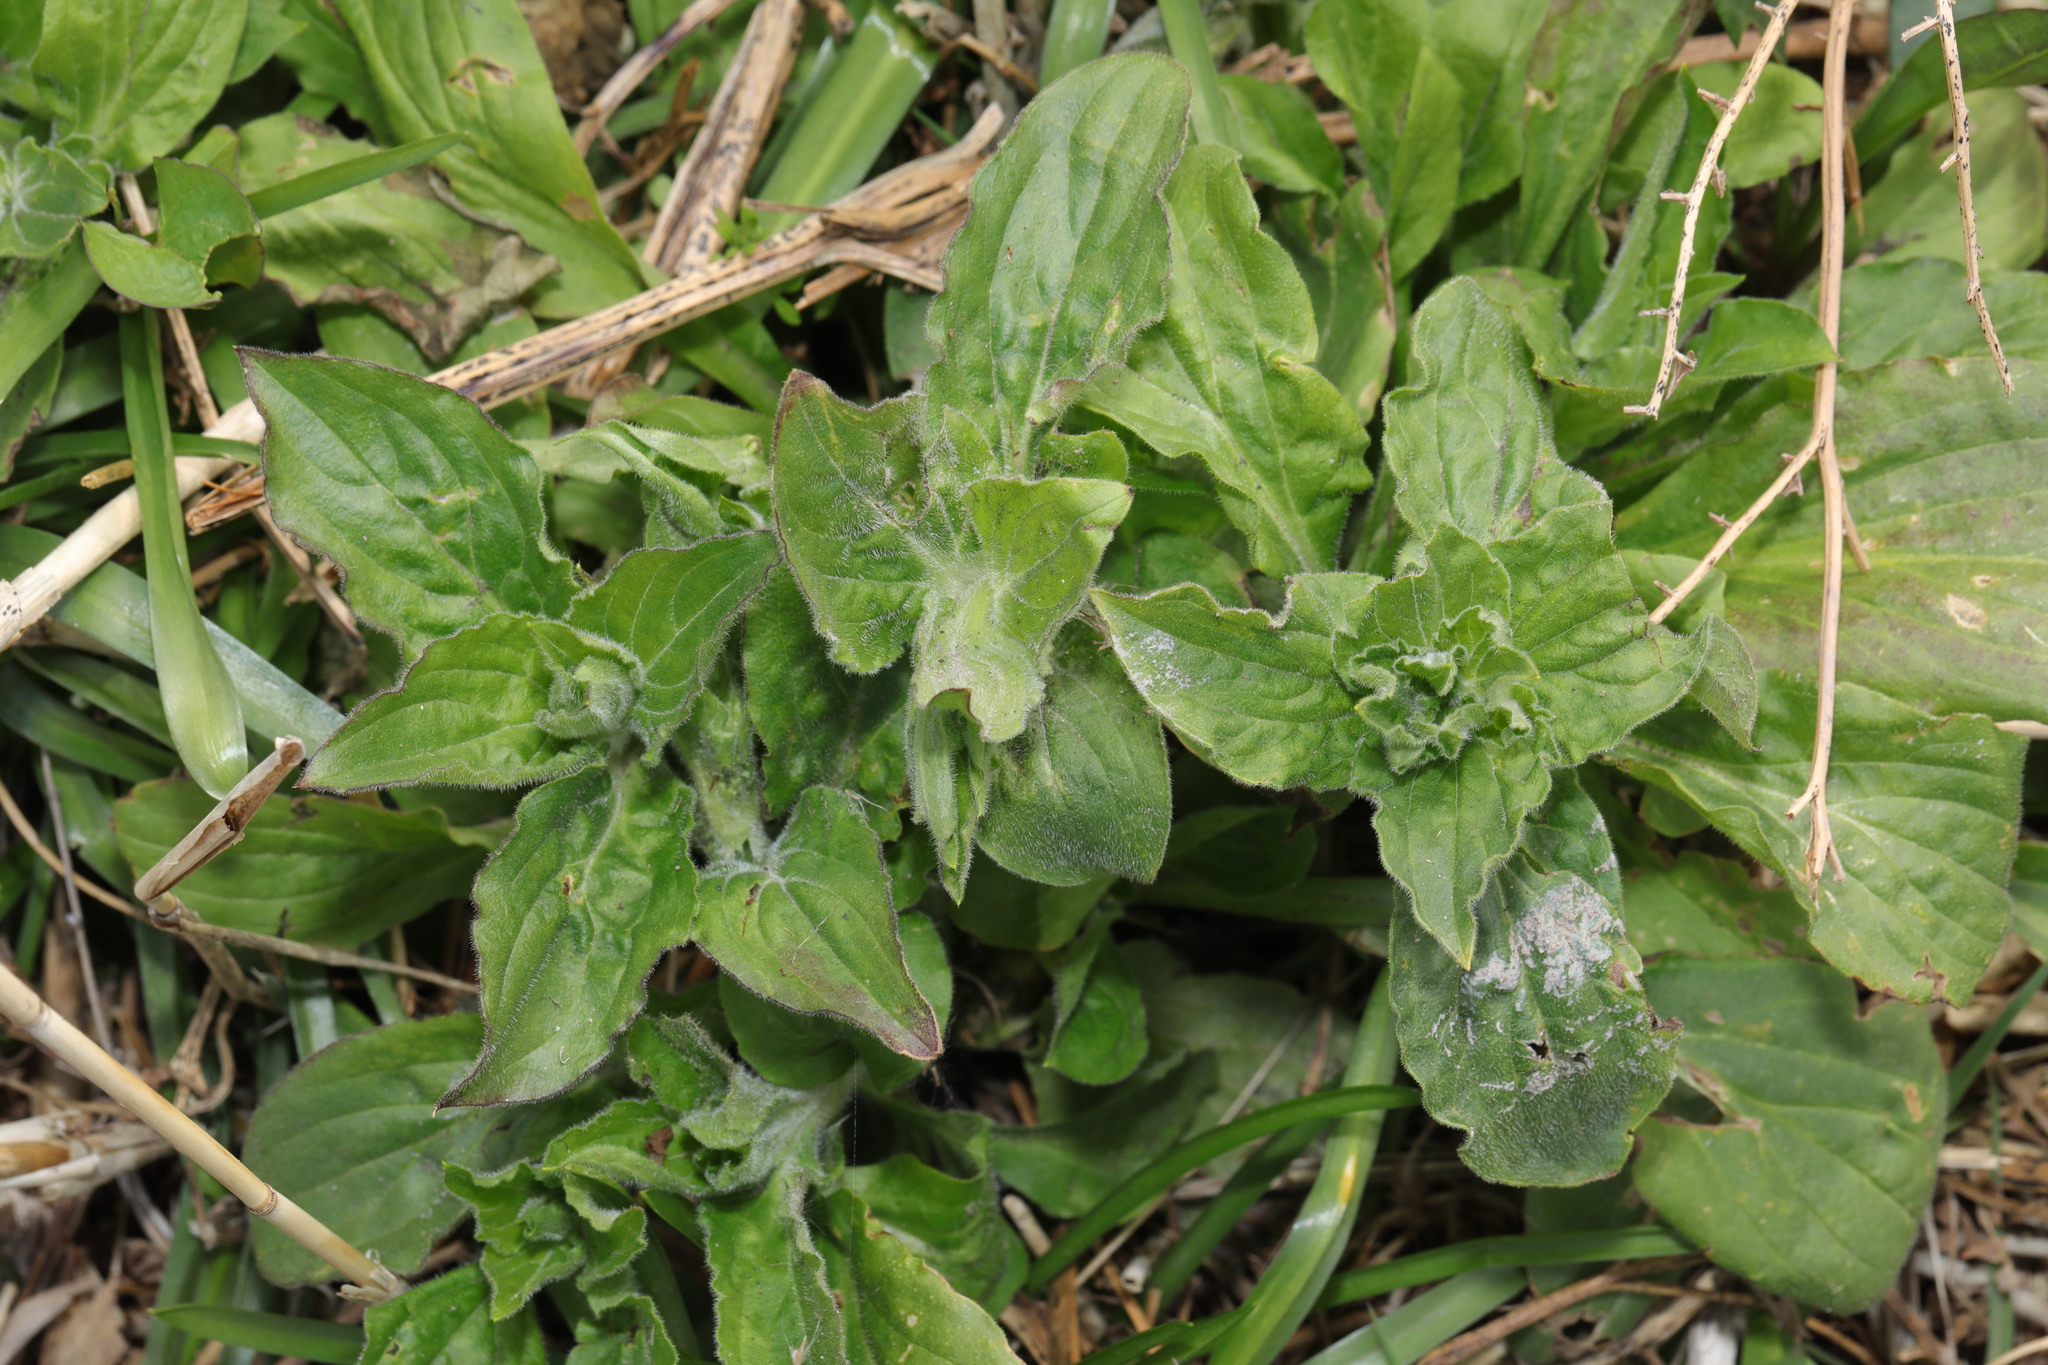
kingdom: Plantae
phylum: Tracheophyta
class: Magnoliopsida
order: Caryophyllales
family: Caryophyllaceae
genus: Silene
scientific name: Silene dioica
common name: Red campion
